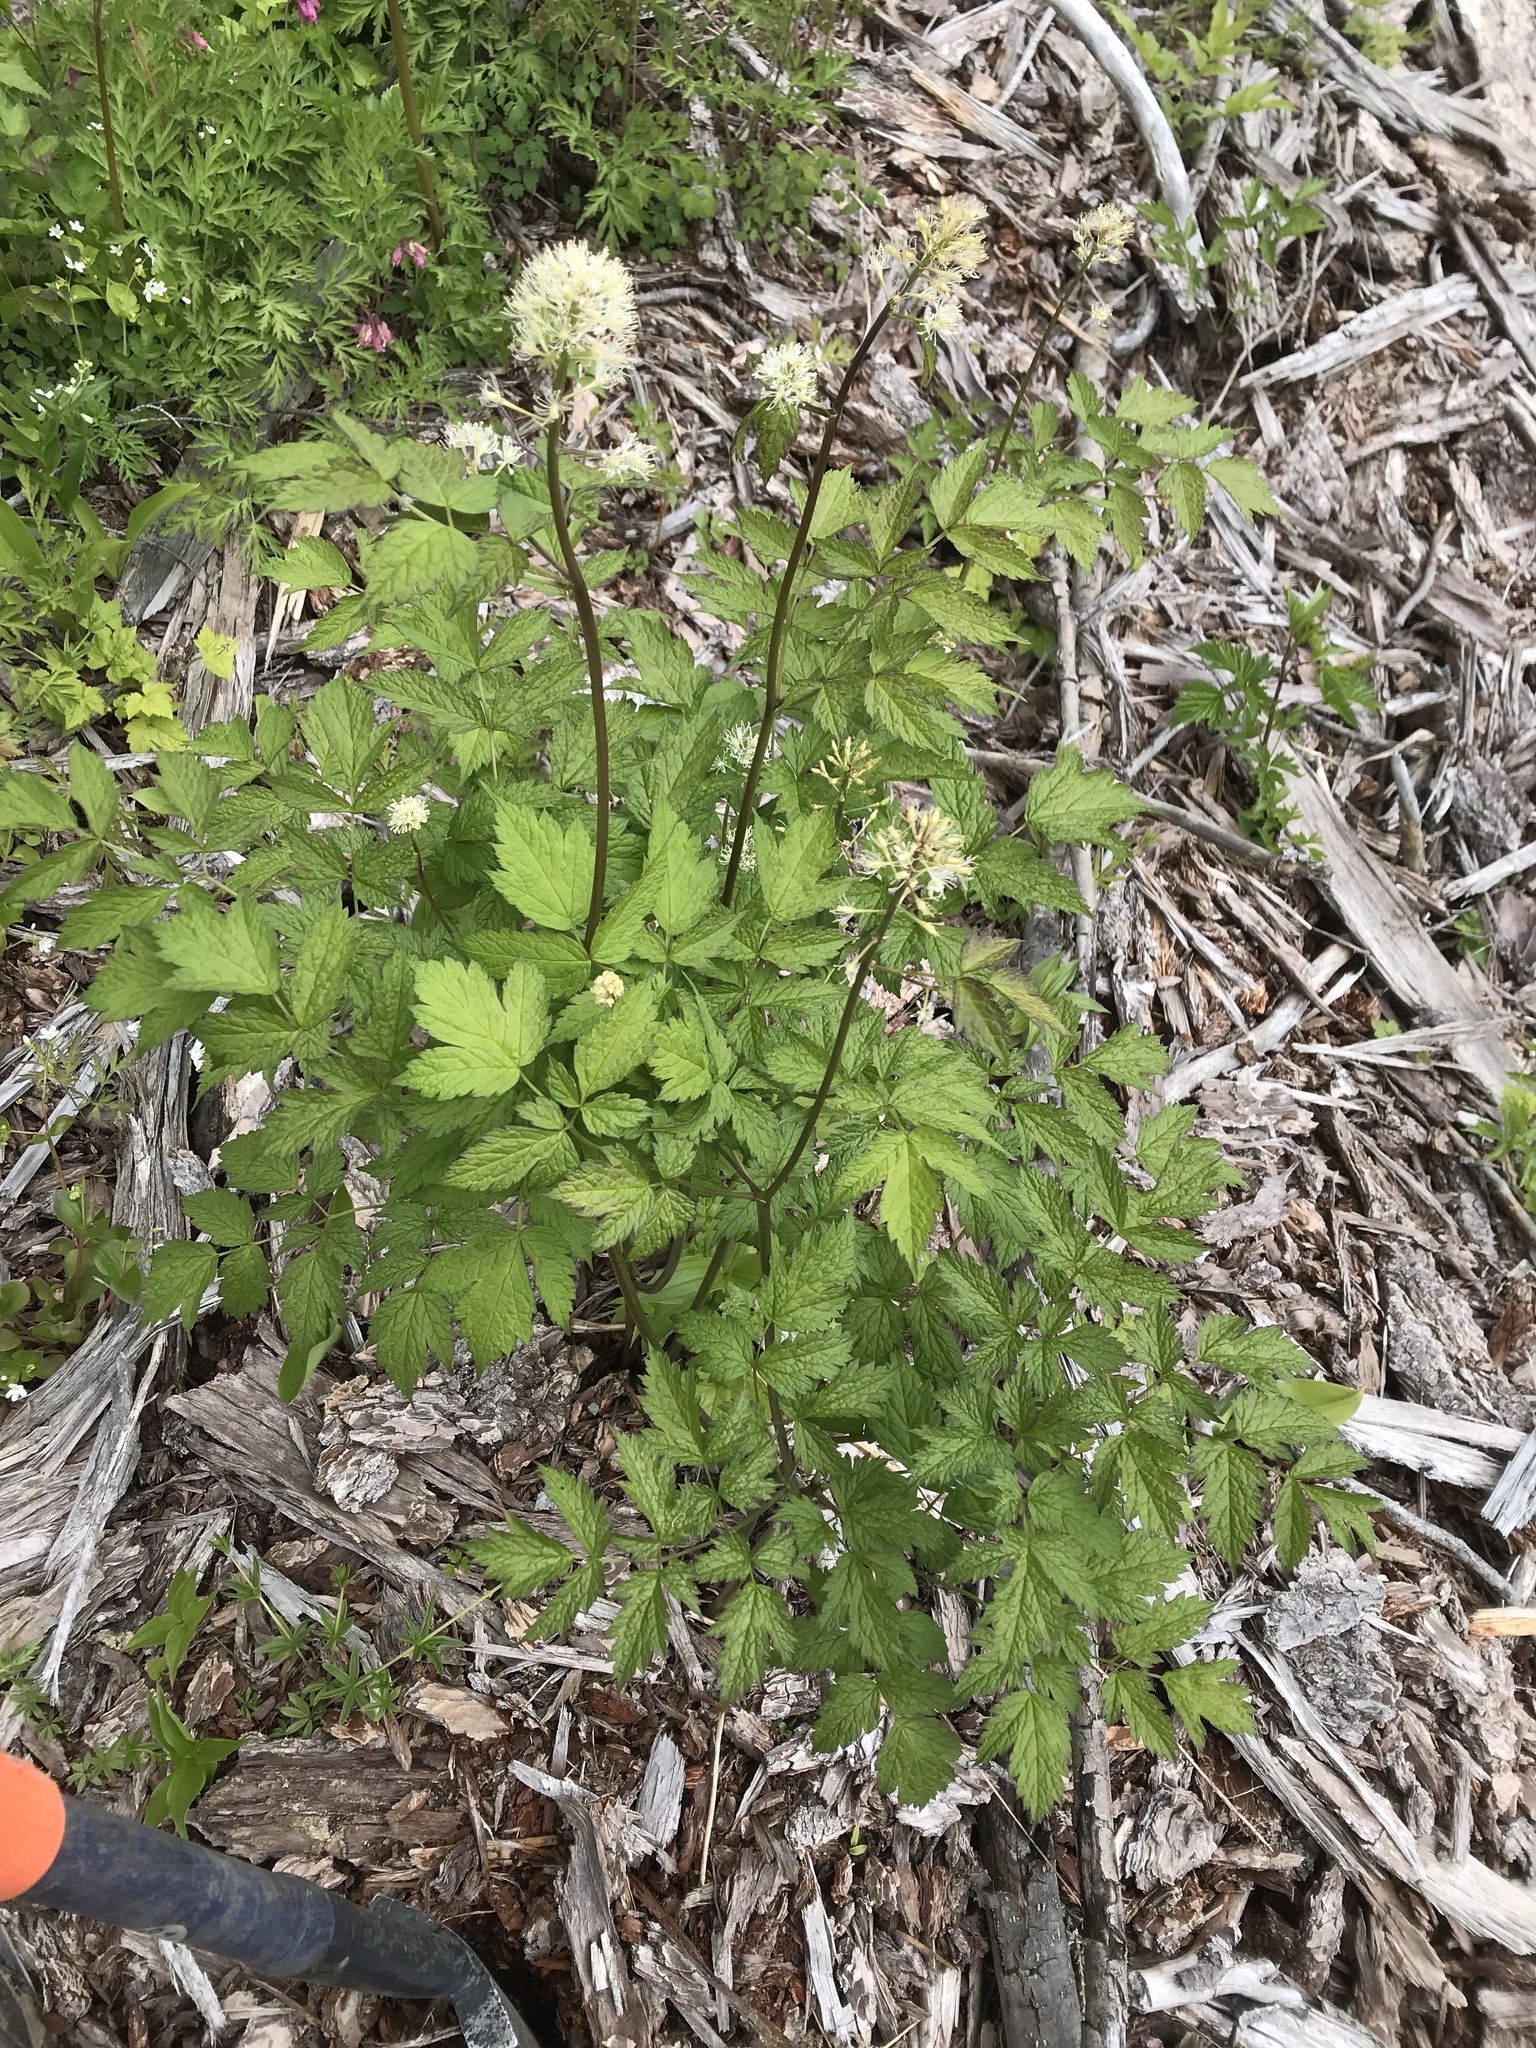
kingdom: Plantae
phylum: Tracheophyta
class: Magnoliopsida
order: Ranunculales
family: Ranunculaceae
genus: Actaea
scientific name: Actaea rubra
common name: Red baneberry
